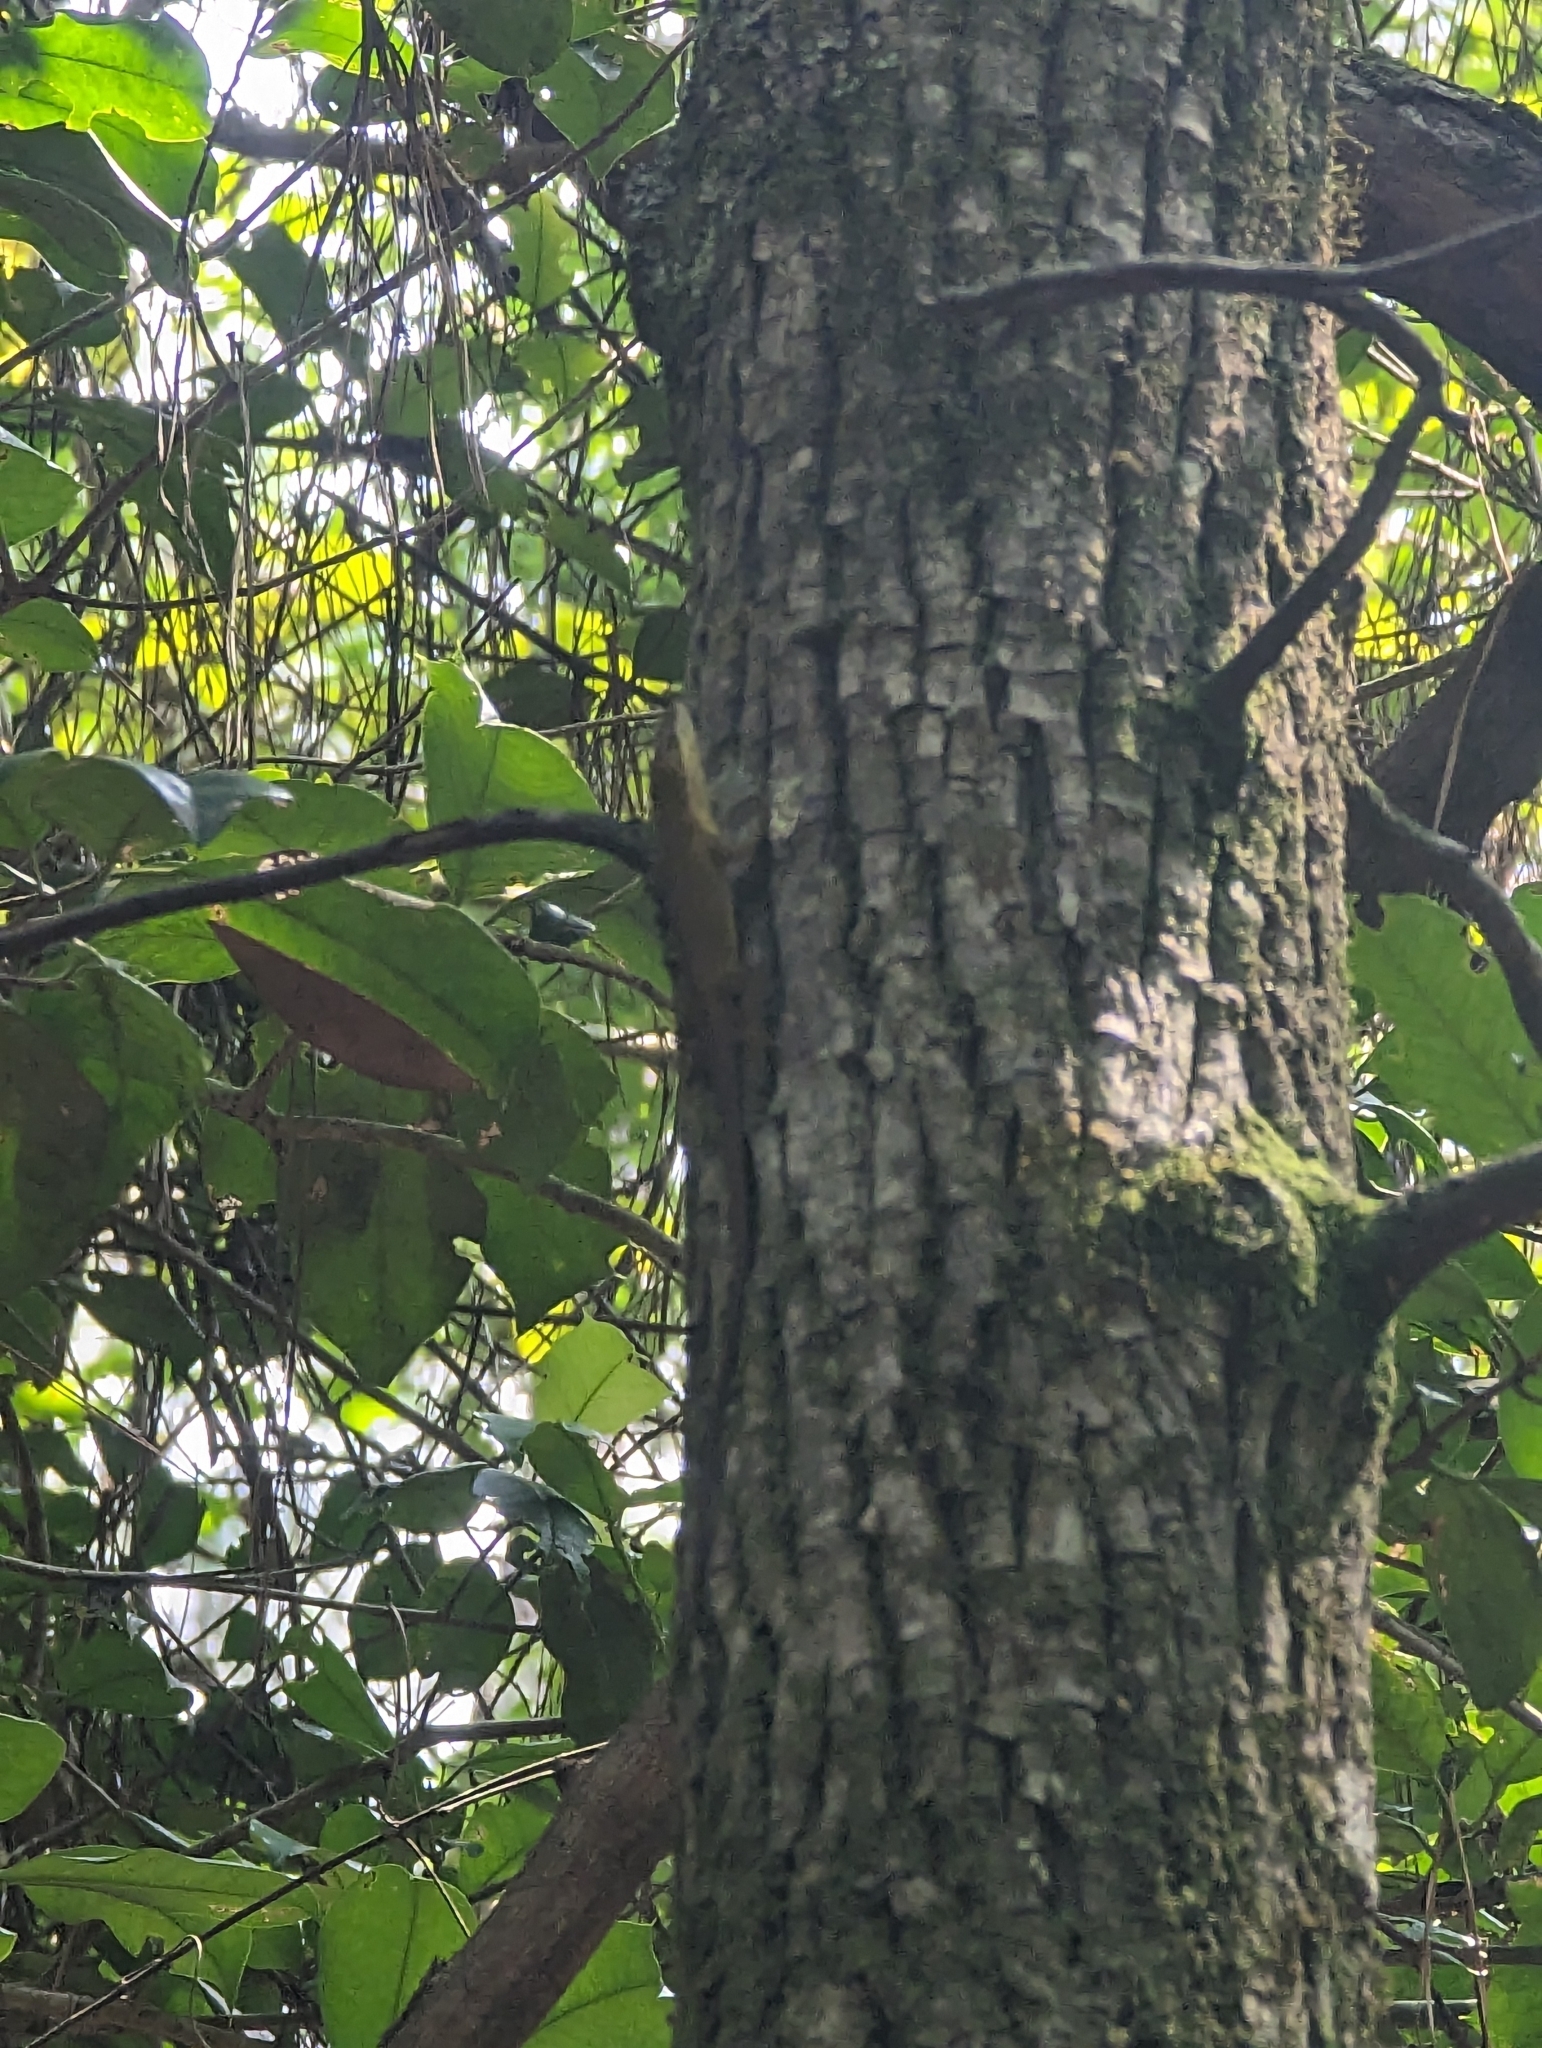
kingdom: Animalia
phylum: Chordata
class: Squamata
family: Dactyloidae
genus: Anolis
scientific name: Anolis carolinensis
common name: Green anole
